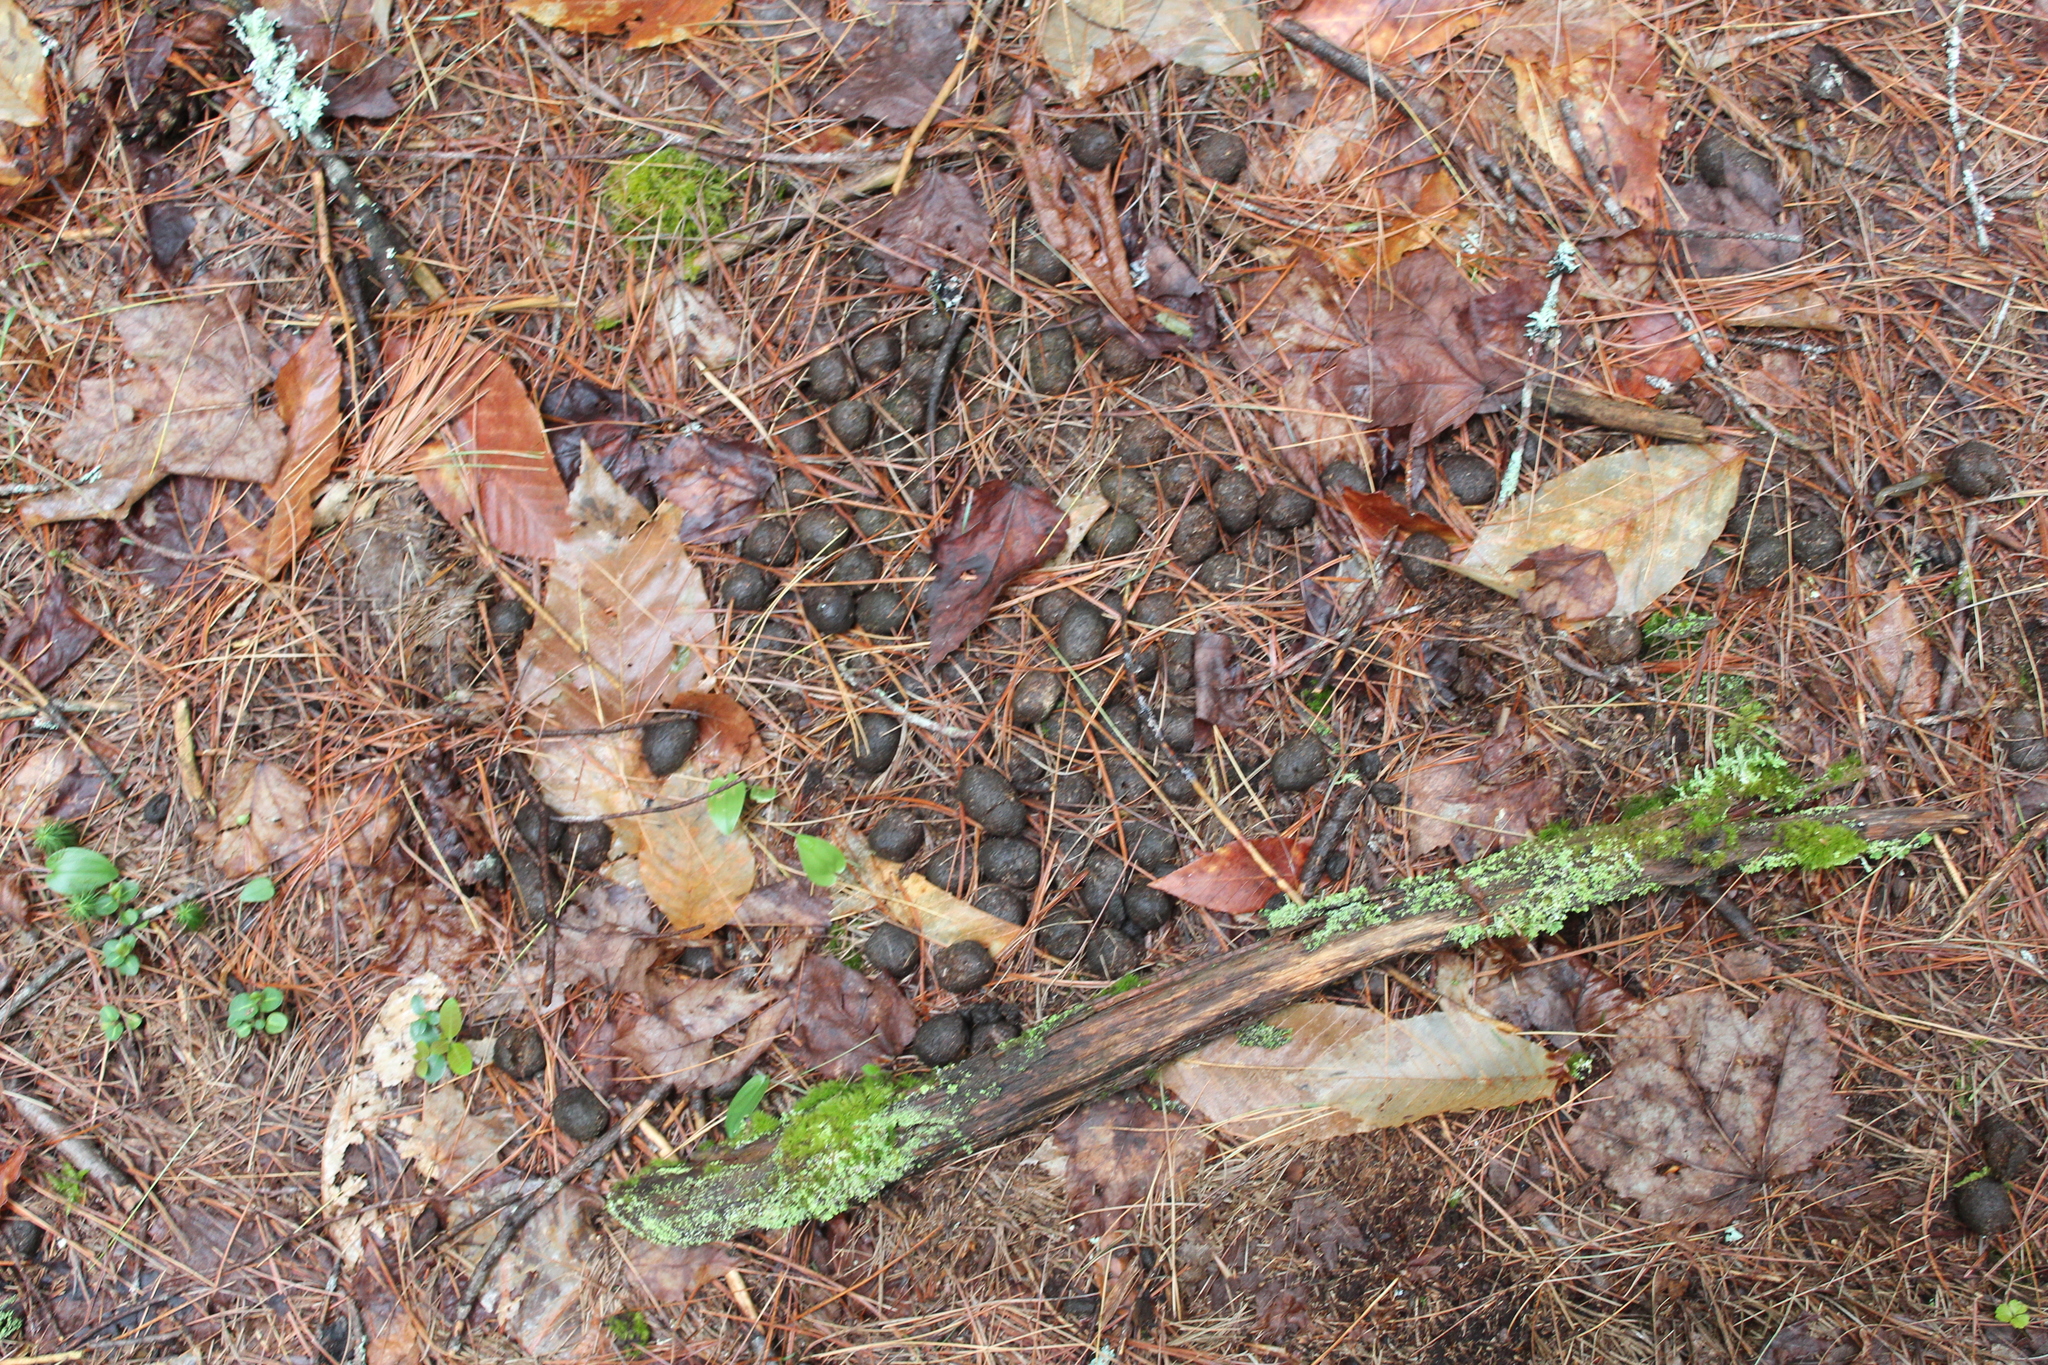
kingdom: Animalia
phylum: Chordata
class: Mammalia
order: Artiodactyla
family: Cervidae
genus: Alces
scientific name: Alces alces
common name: Moose
